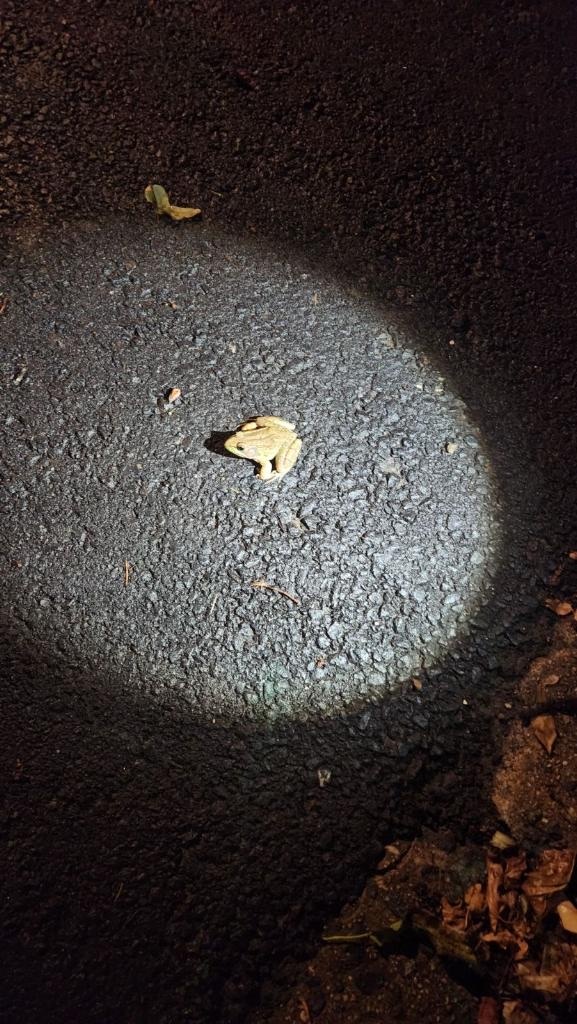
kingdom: Animalia
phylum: Chordata
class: Amphibia
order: Anura
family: Ranidae
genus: Lithobates
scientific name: Lithobates clamitans
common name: Green frog
